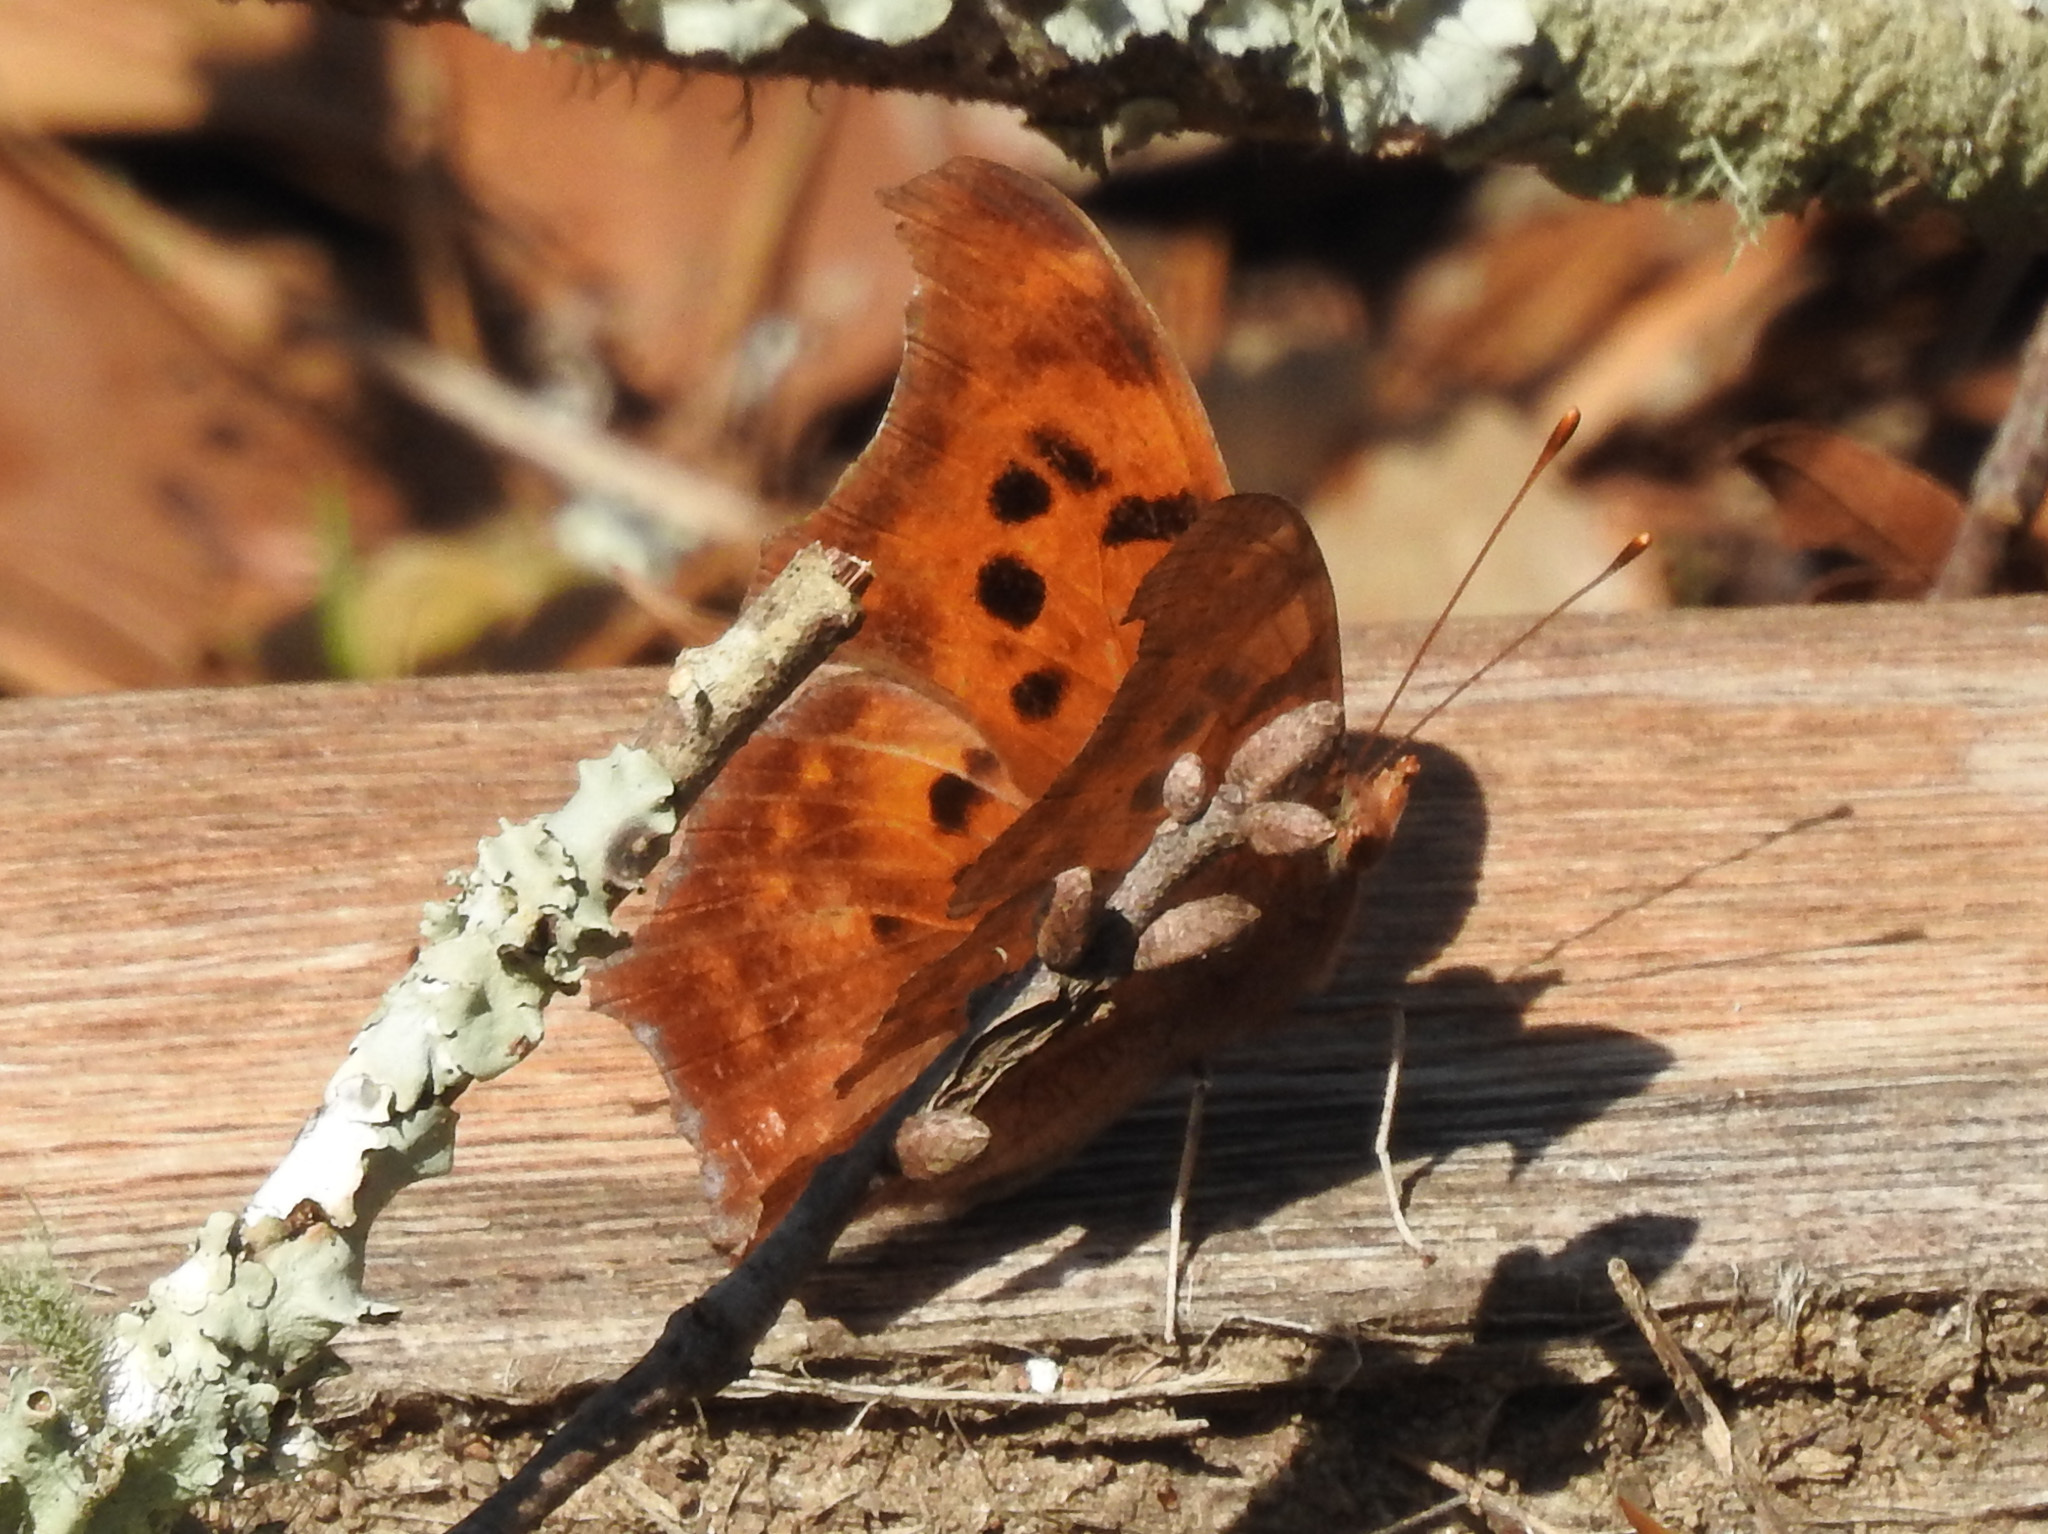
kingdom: Animalia
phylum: Arthropoda
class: Insecta
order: Lepidoptera
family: Nymphalidae
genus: Polygonia
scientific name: Polygonia interrogationis
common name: Question mark
